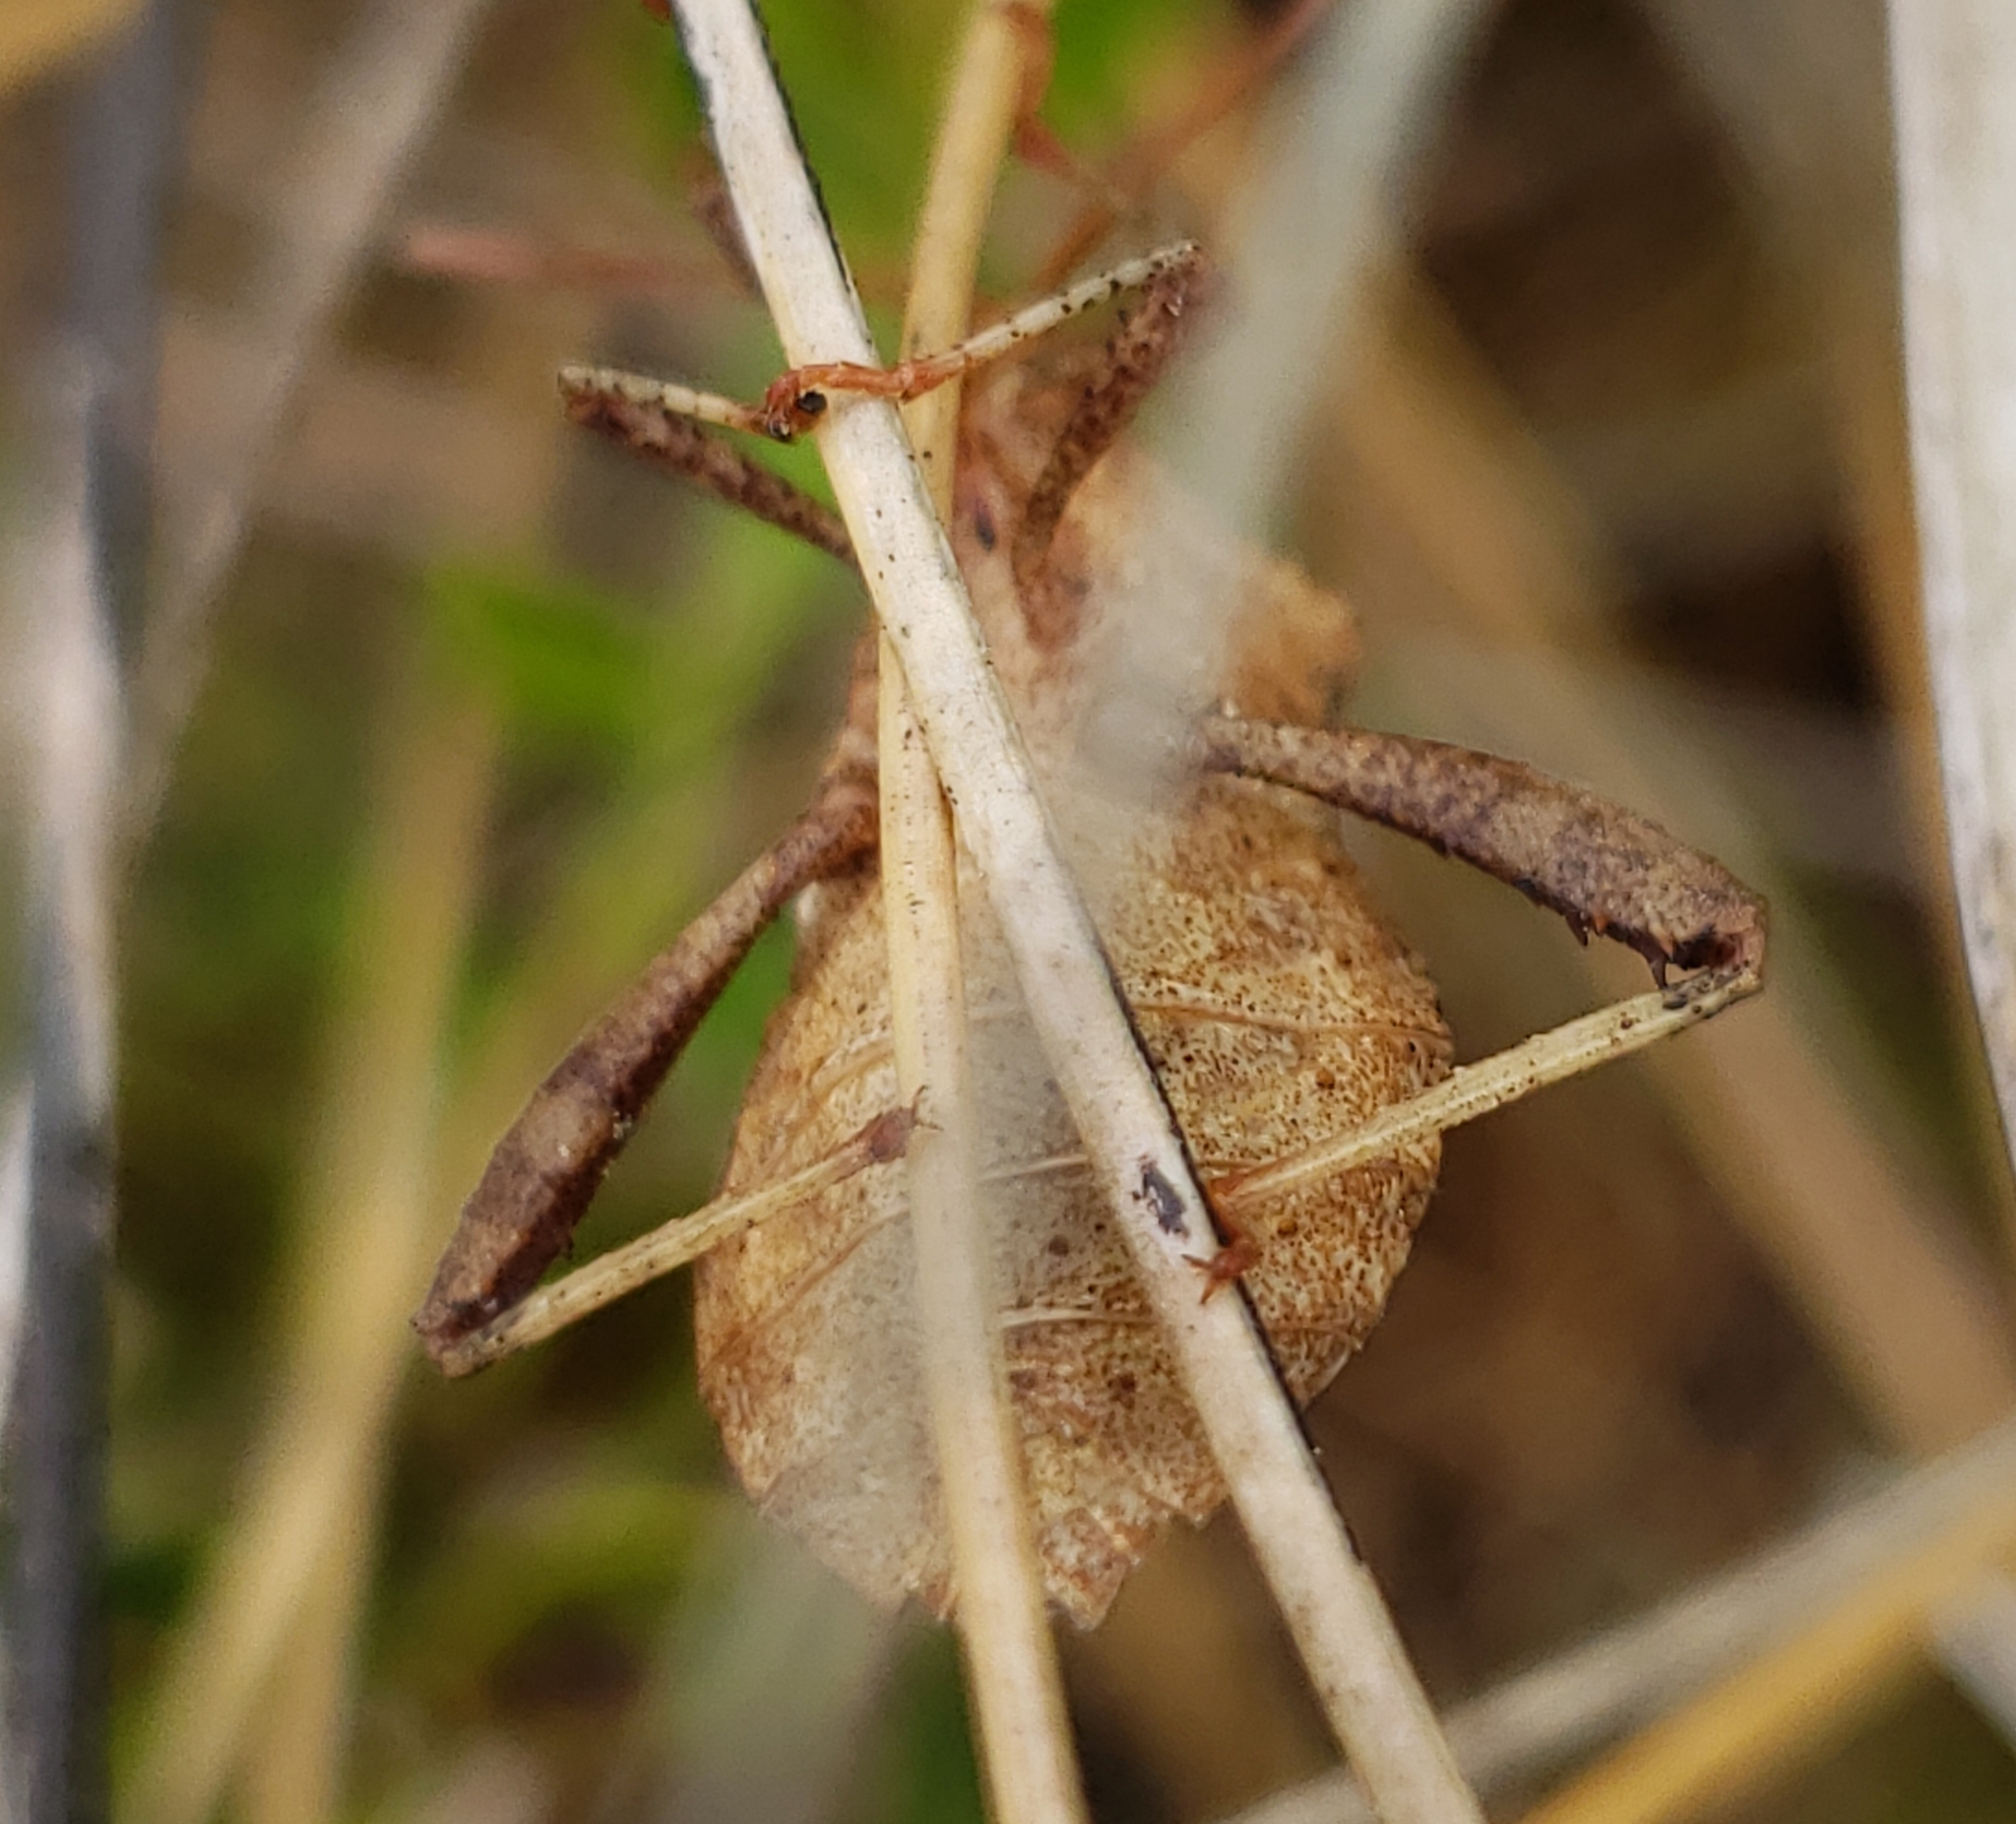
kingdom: Animalia
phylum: Arthropoda
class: Insecta
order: Hemiptera
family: Coreidae
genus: Euthochtha
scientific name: Euthochtha galeator
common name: Helmeted squash bug
